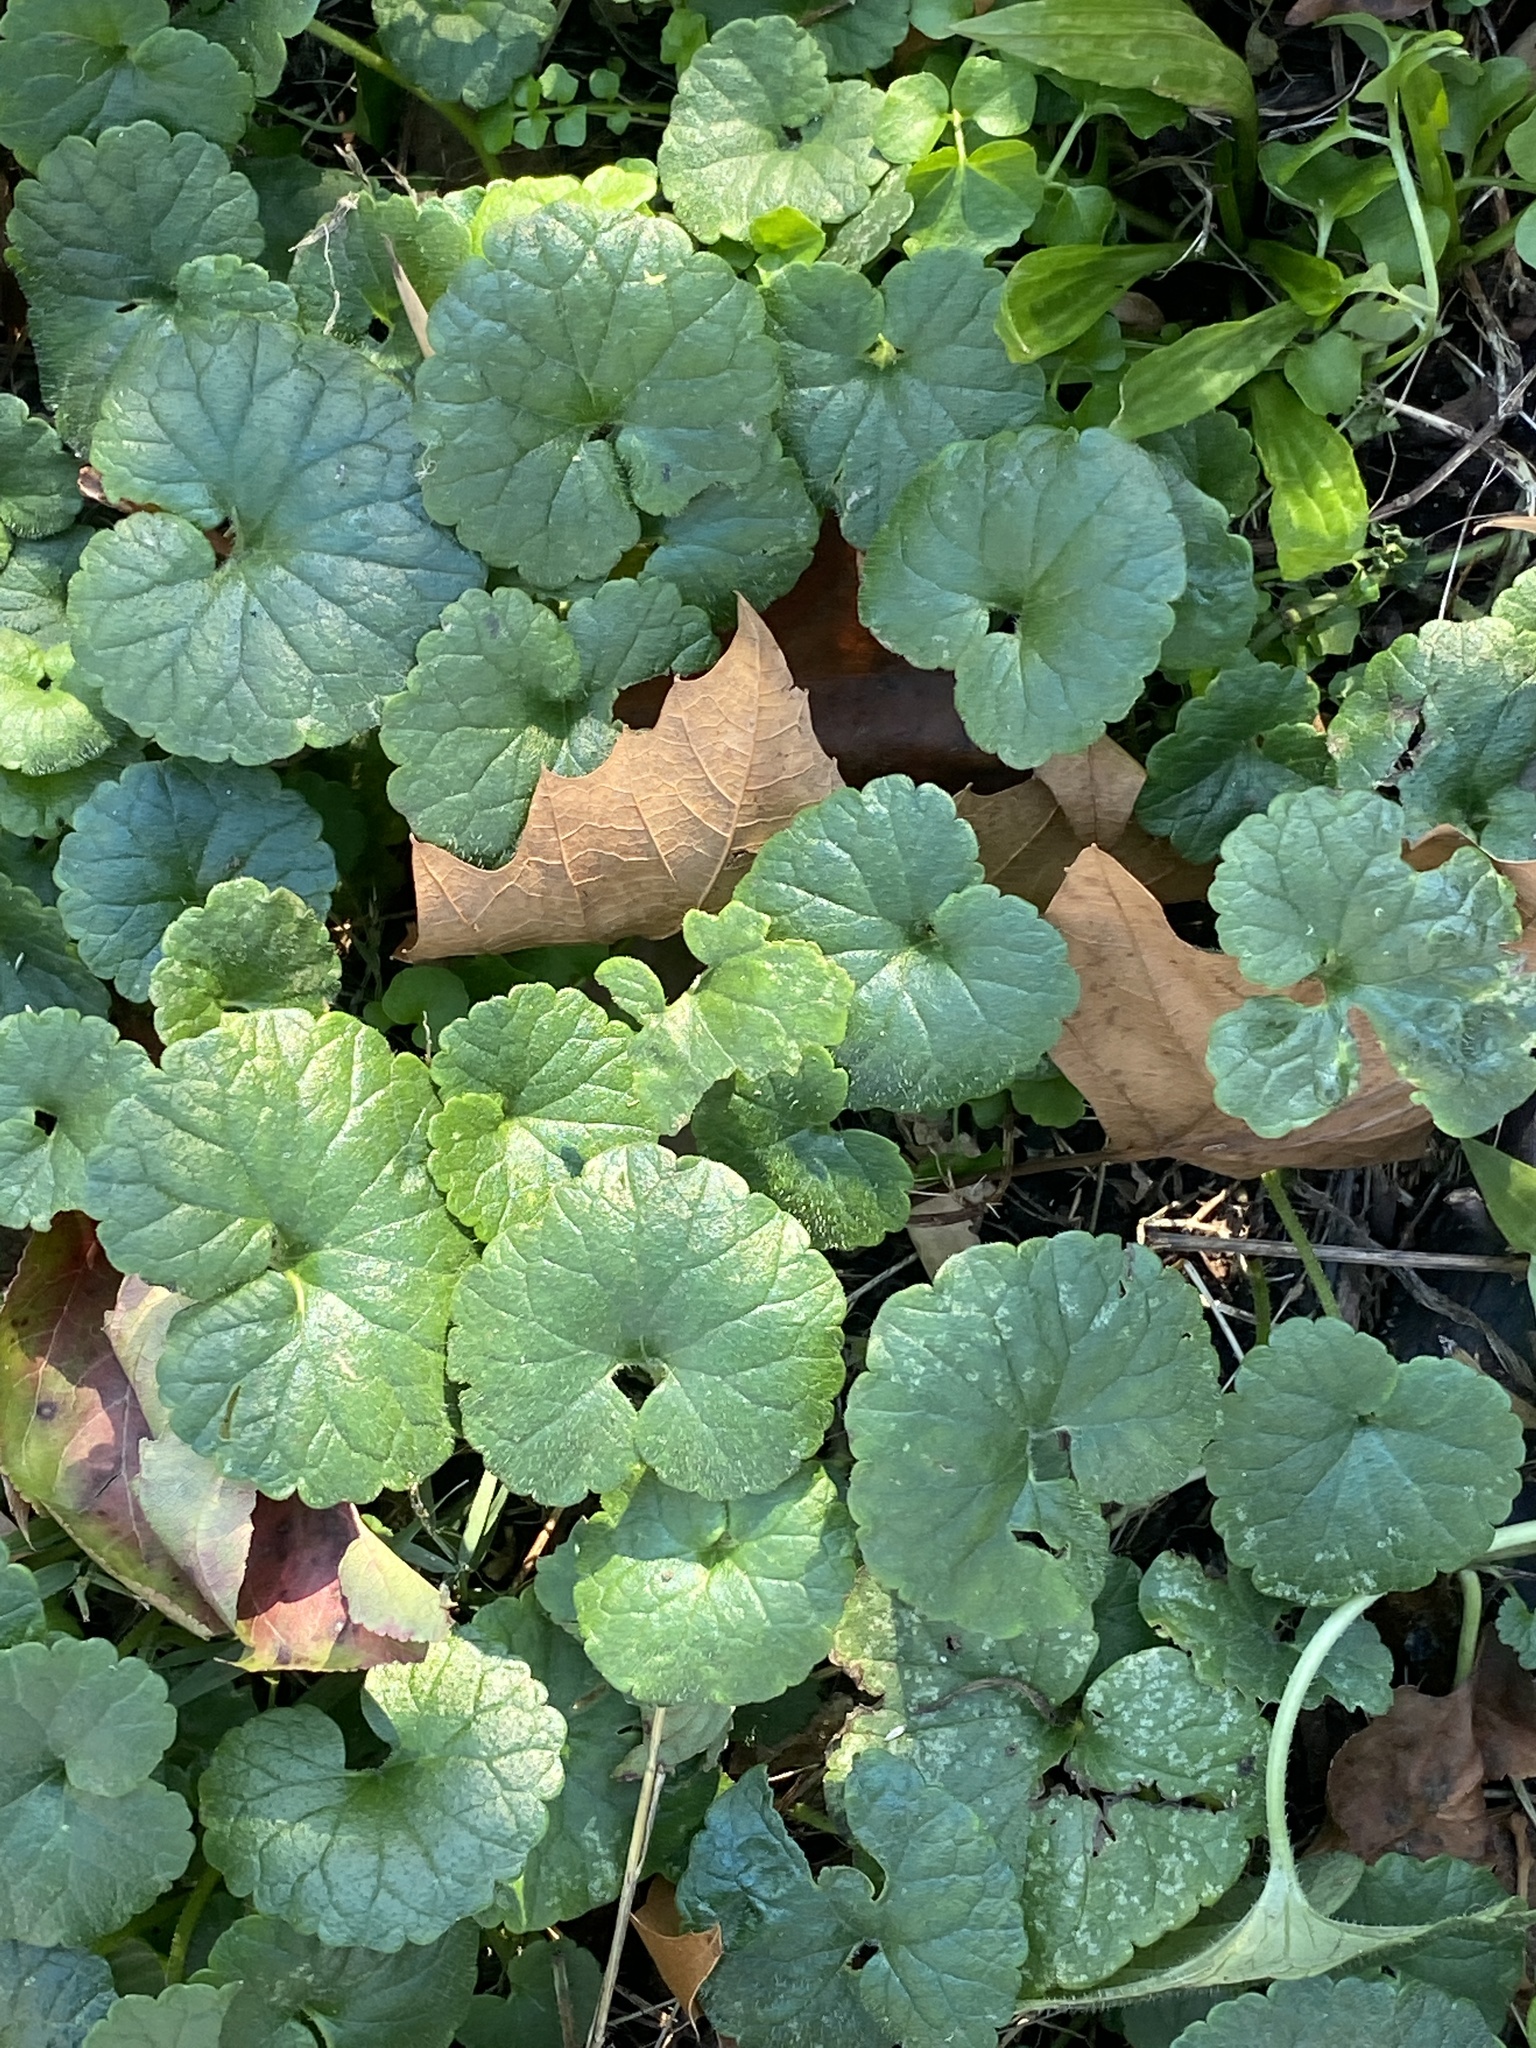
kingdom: Plantae
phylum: Tracheophyta
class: Magnoliopsida
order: Lamiales
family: Lamiaceae
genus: Glechoma
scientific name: Glechoma hederacea
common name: Ground ivy
